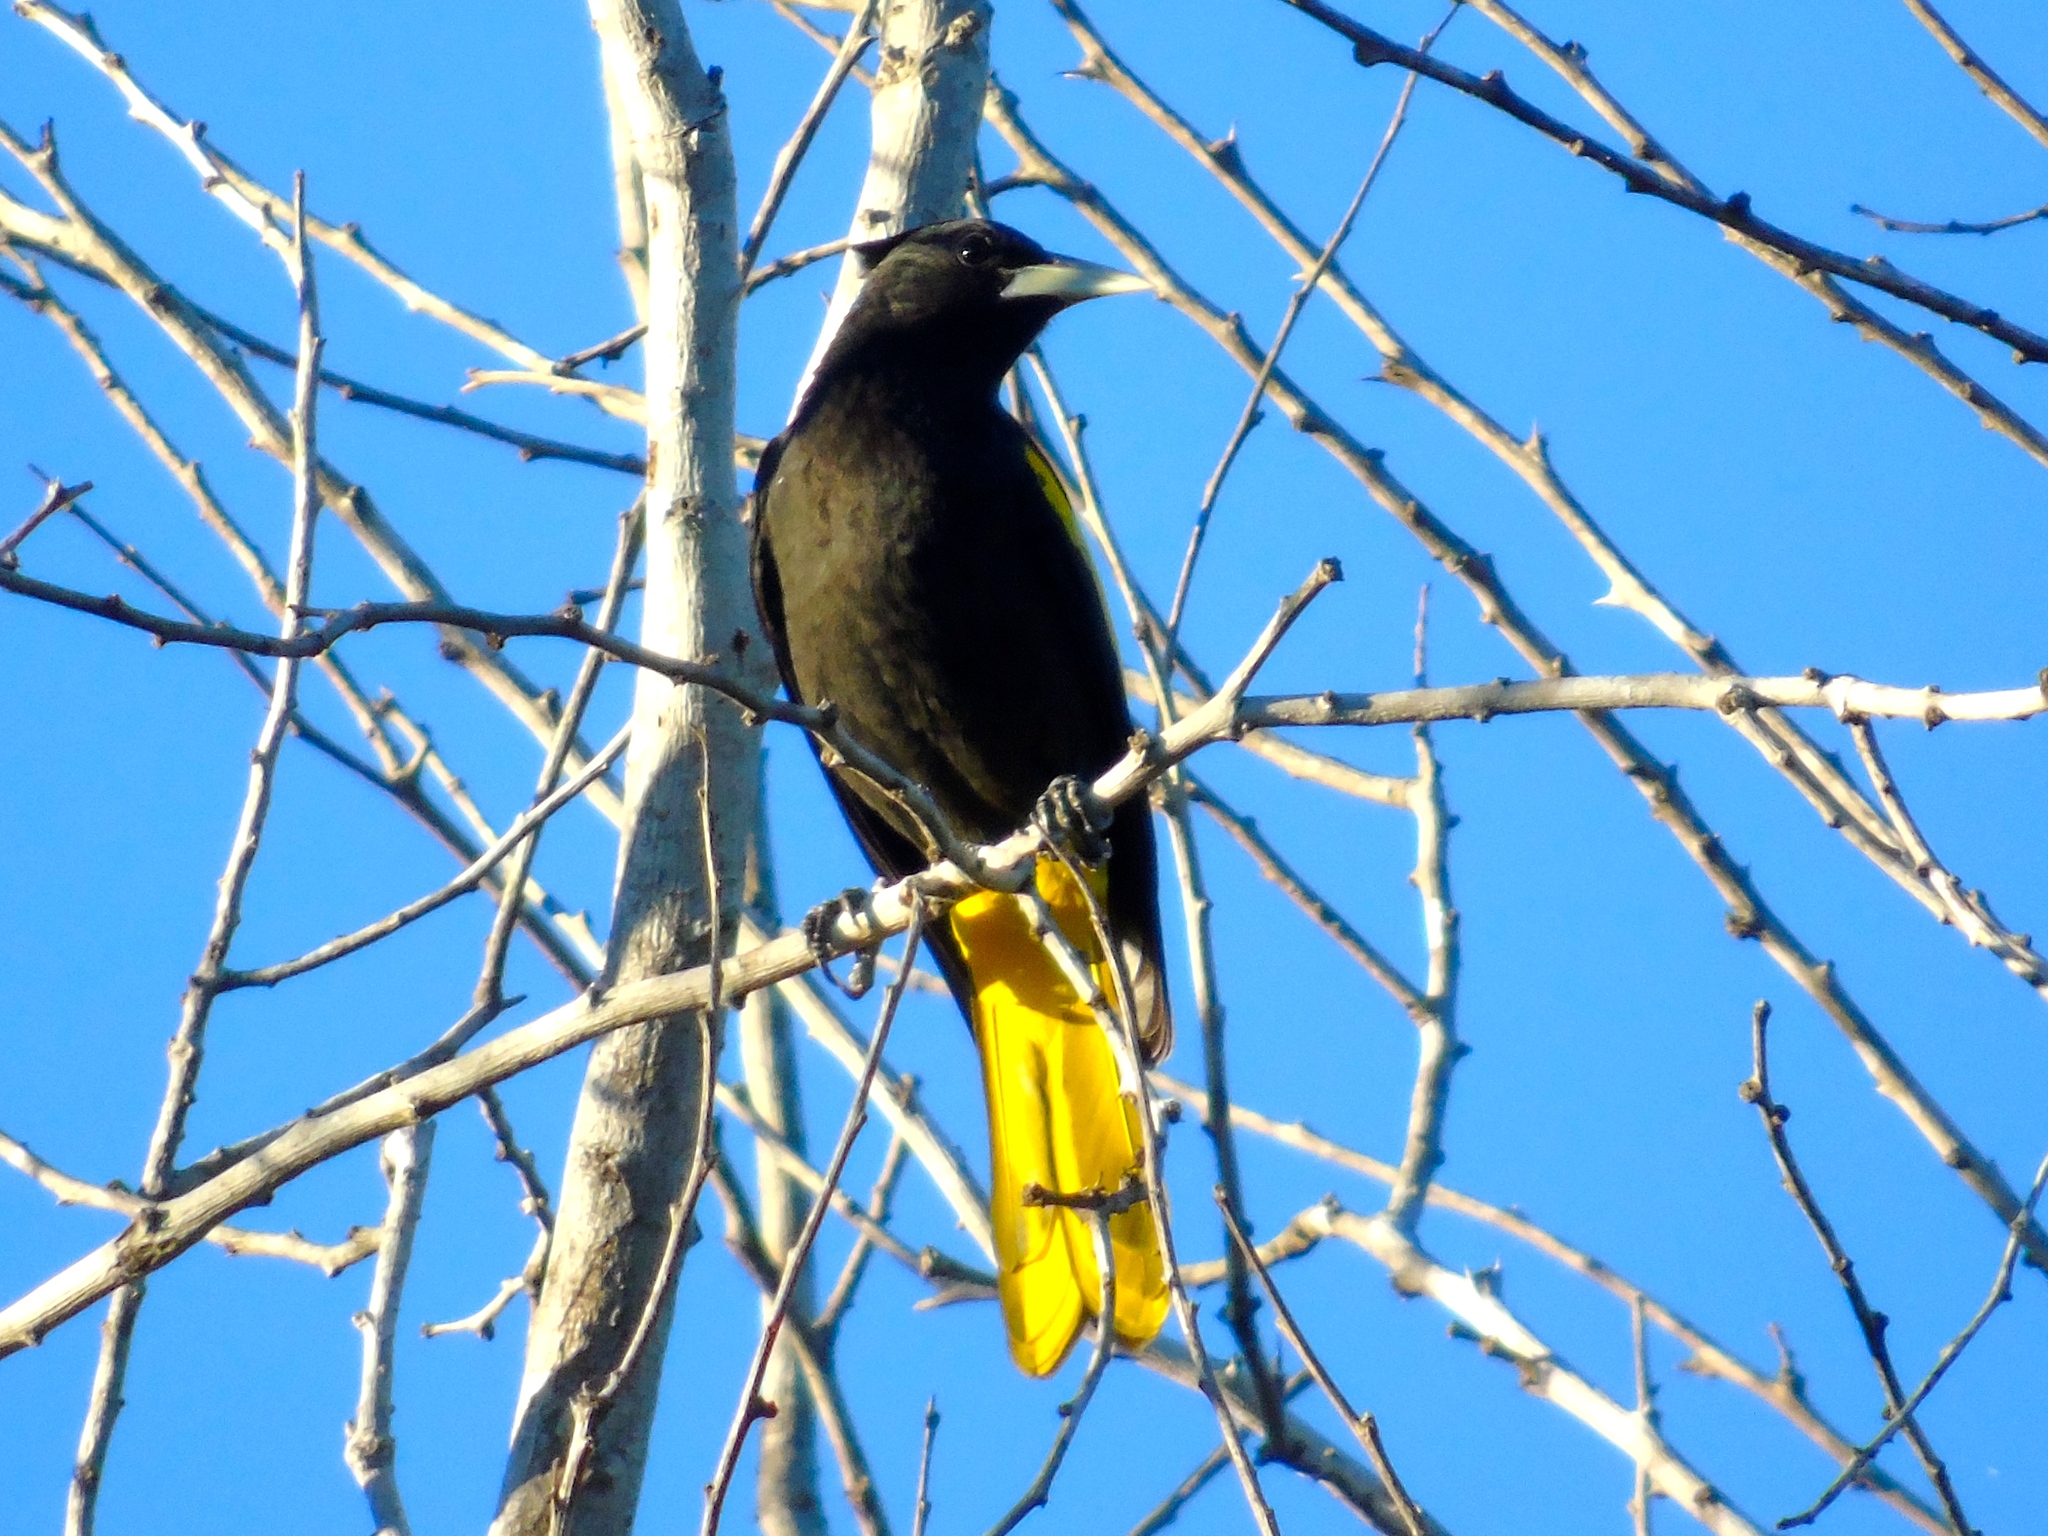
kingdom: Animalia
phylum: Chordata
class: Aves
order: Passeriformes
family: Icteridae
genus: Cacicus
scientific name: Cacicus melanicterus
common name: Yellow-winged cacique
